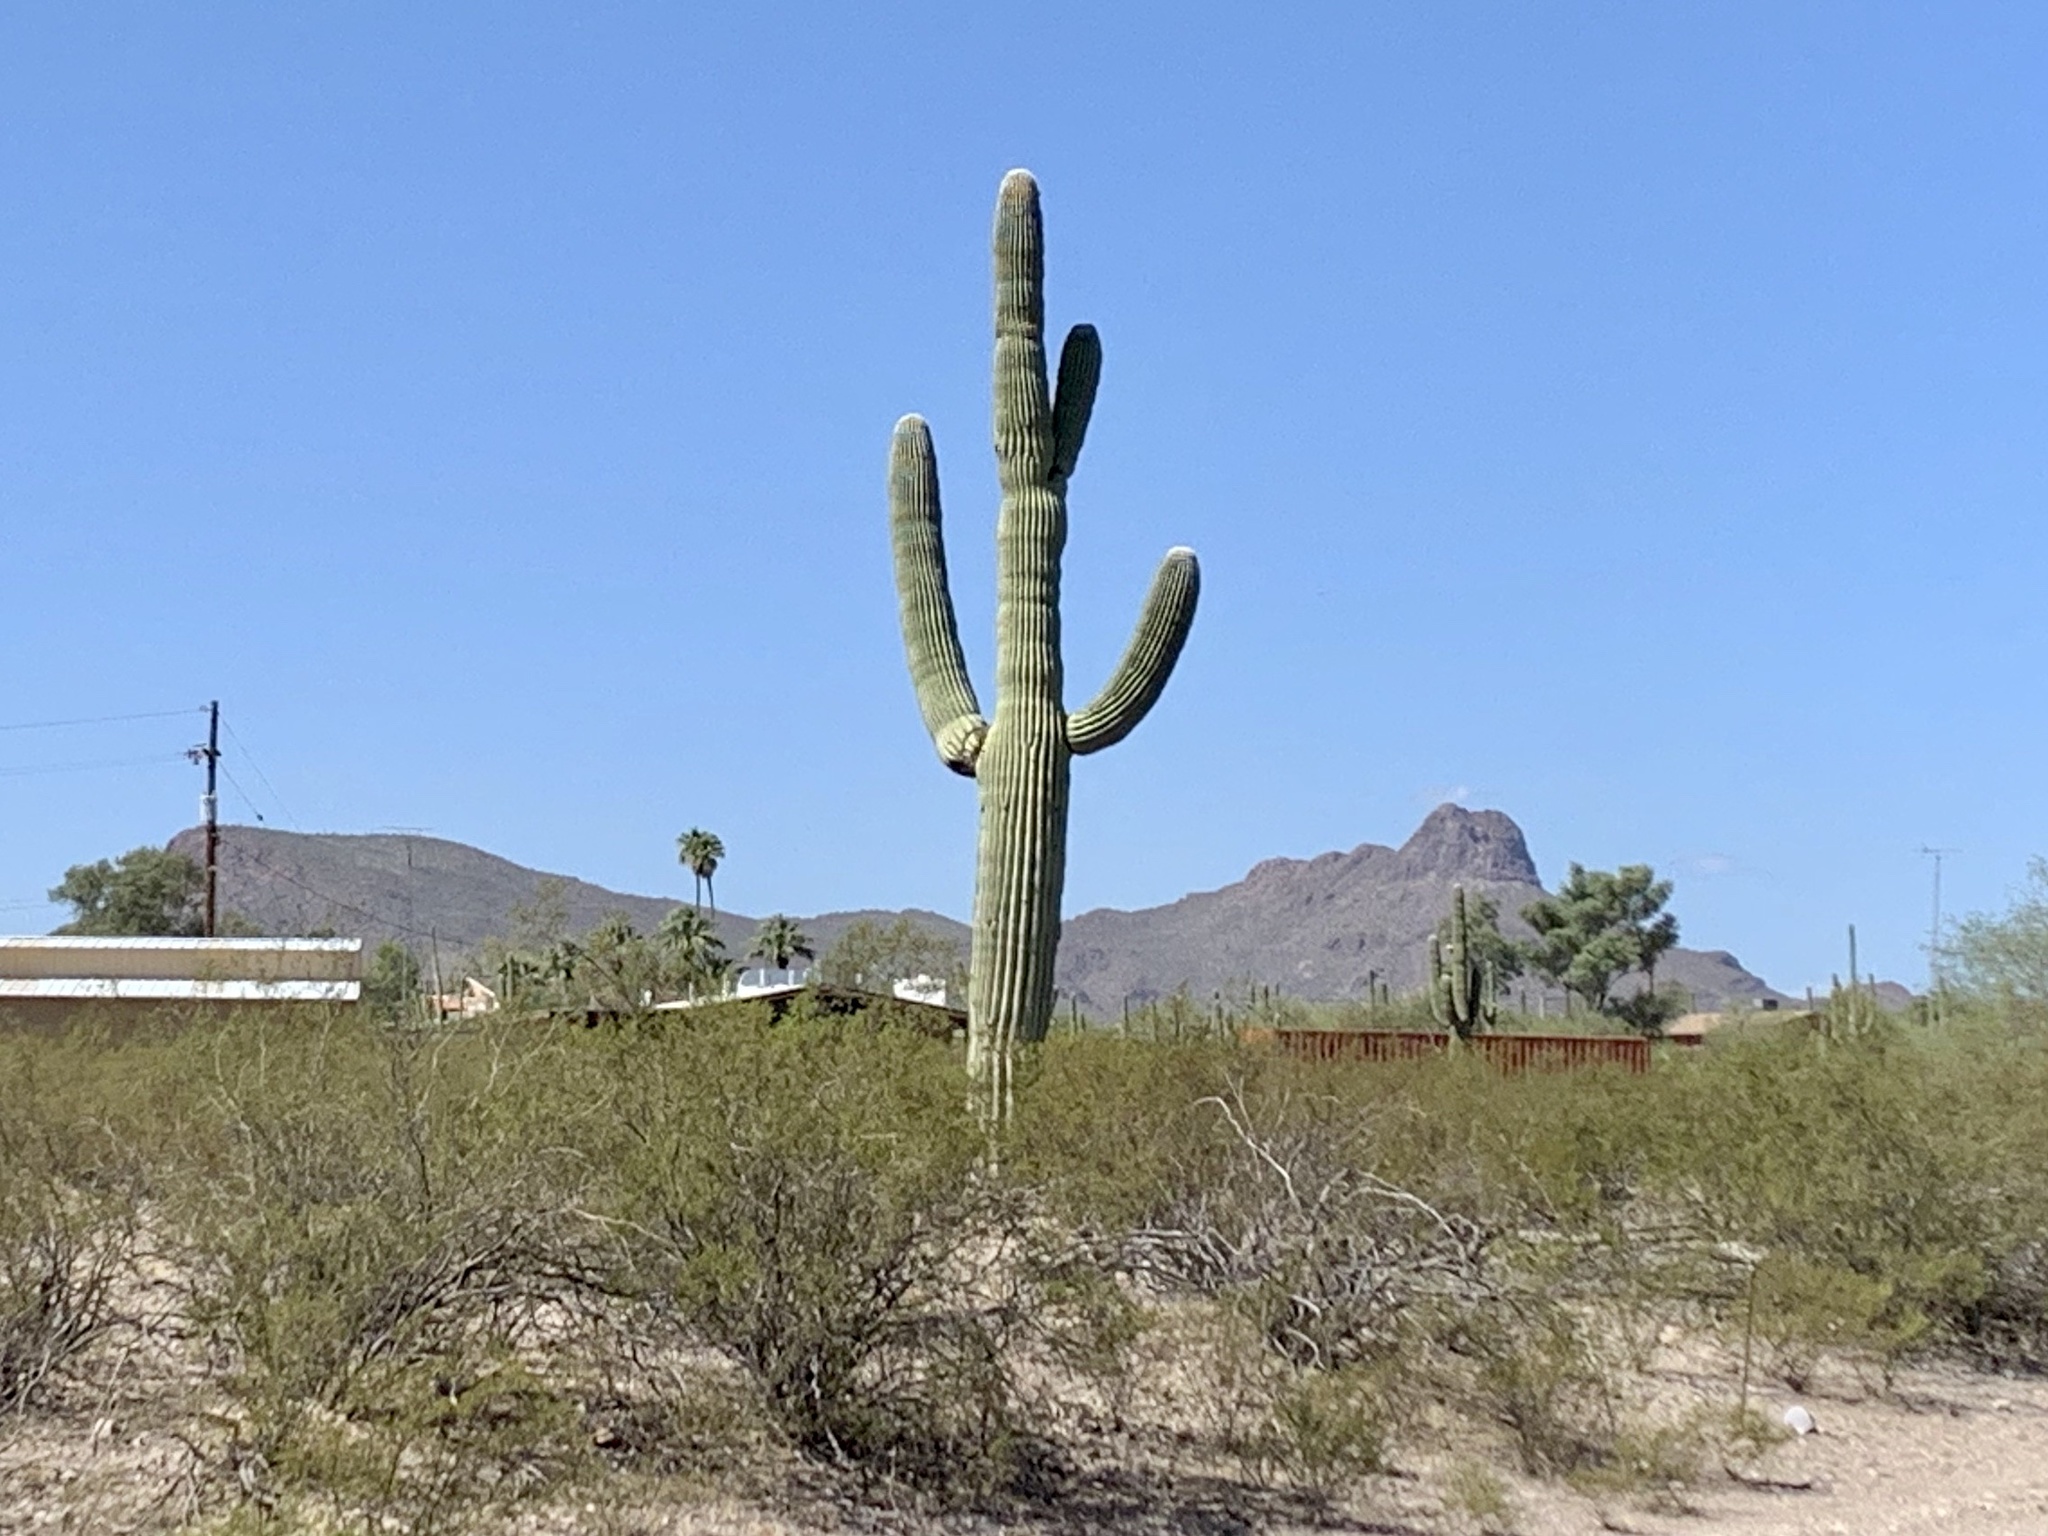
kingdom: Plantae
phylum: Tracheophyta
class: Magnoliopsida
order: Caryophyllales
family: Cactaceae
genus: Carnegiea
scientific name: Carnegiea gigantea
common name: Saguaro
